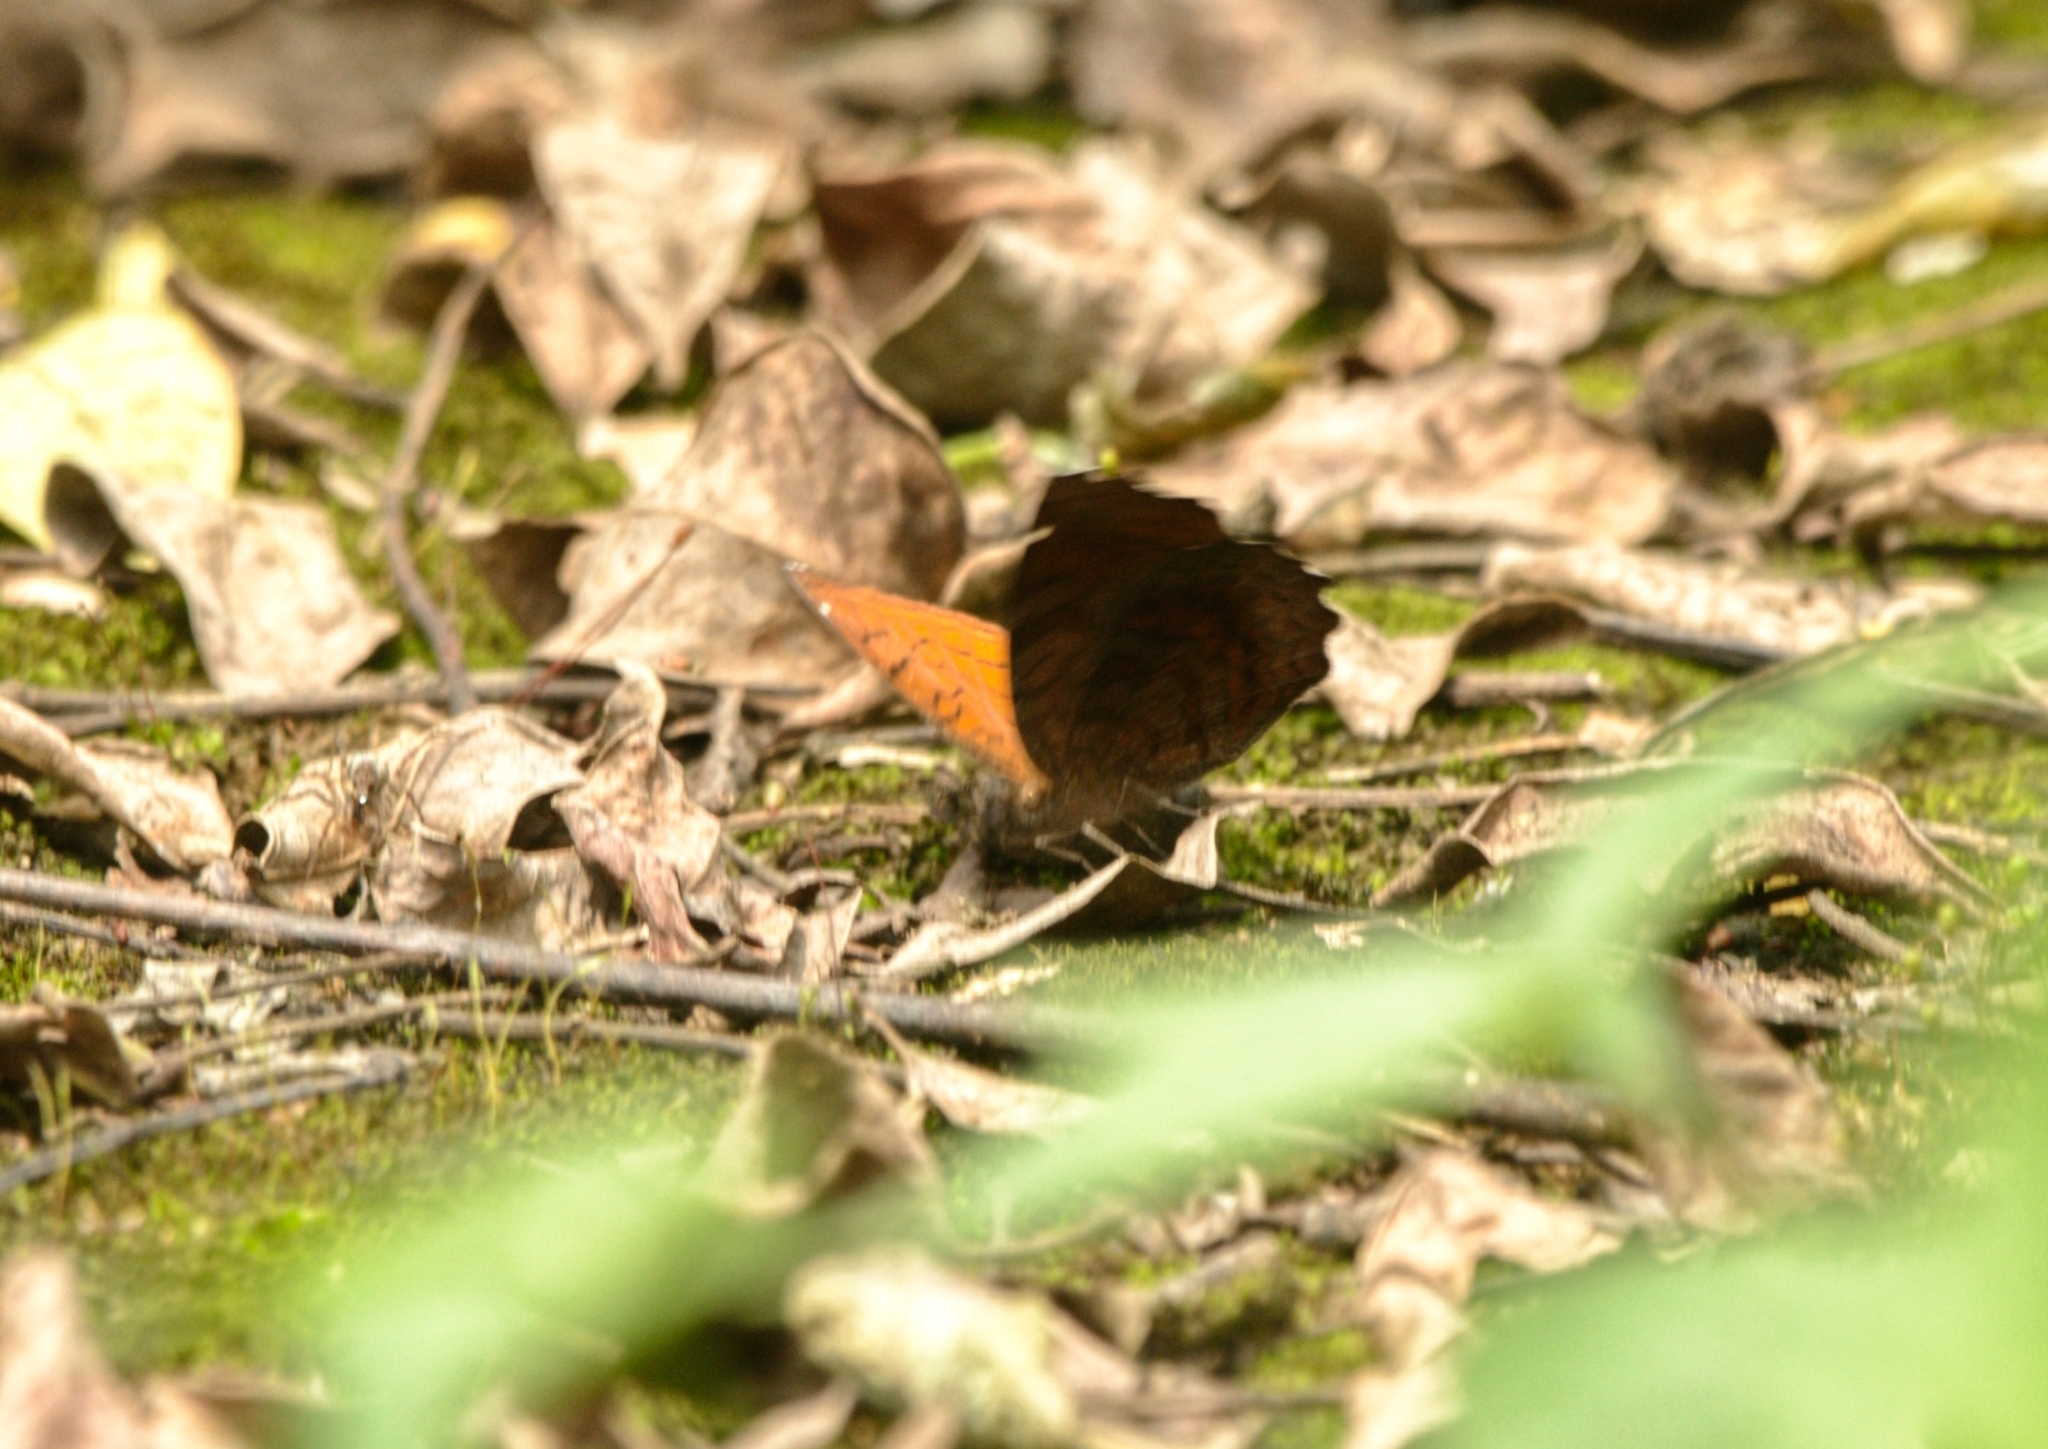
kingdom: Animalia
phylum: Arthropoda
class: Insecta
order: Lepidoptera
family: Nymphalidae
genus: Ariadne
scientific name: Ariadne ariadne
